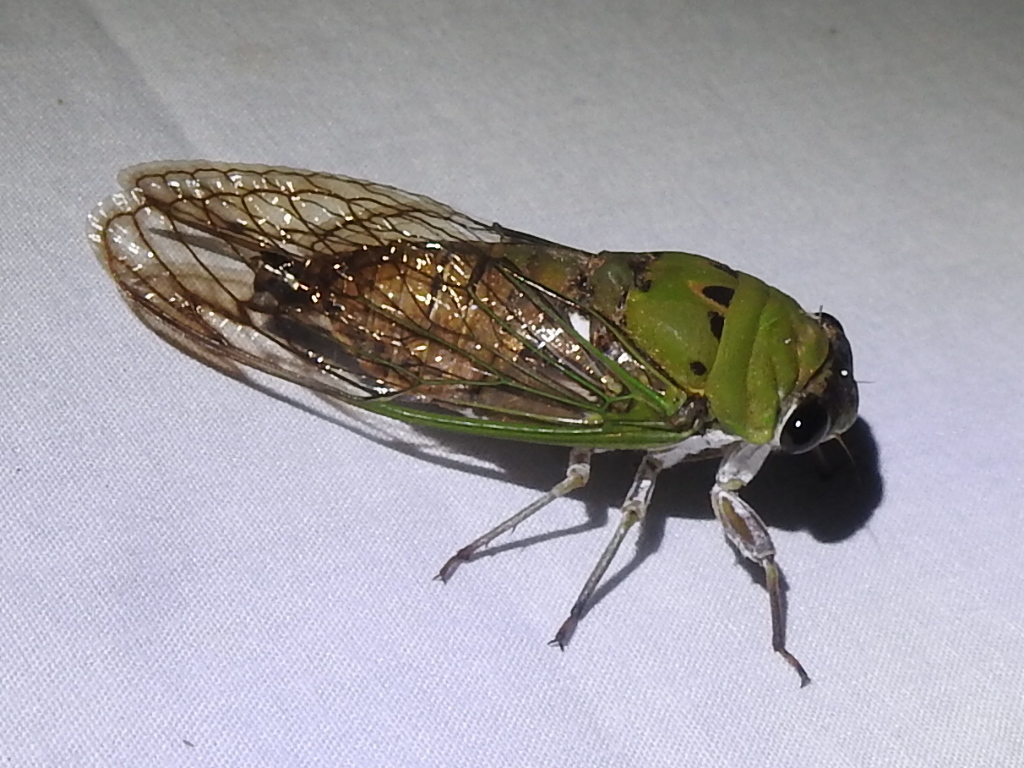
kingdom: Animalia
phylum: Arthropoda
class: Insecta
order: Hemiptera
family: Cicadidae
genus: Neotibicen
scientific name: Neotibicen superbus
